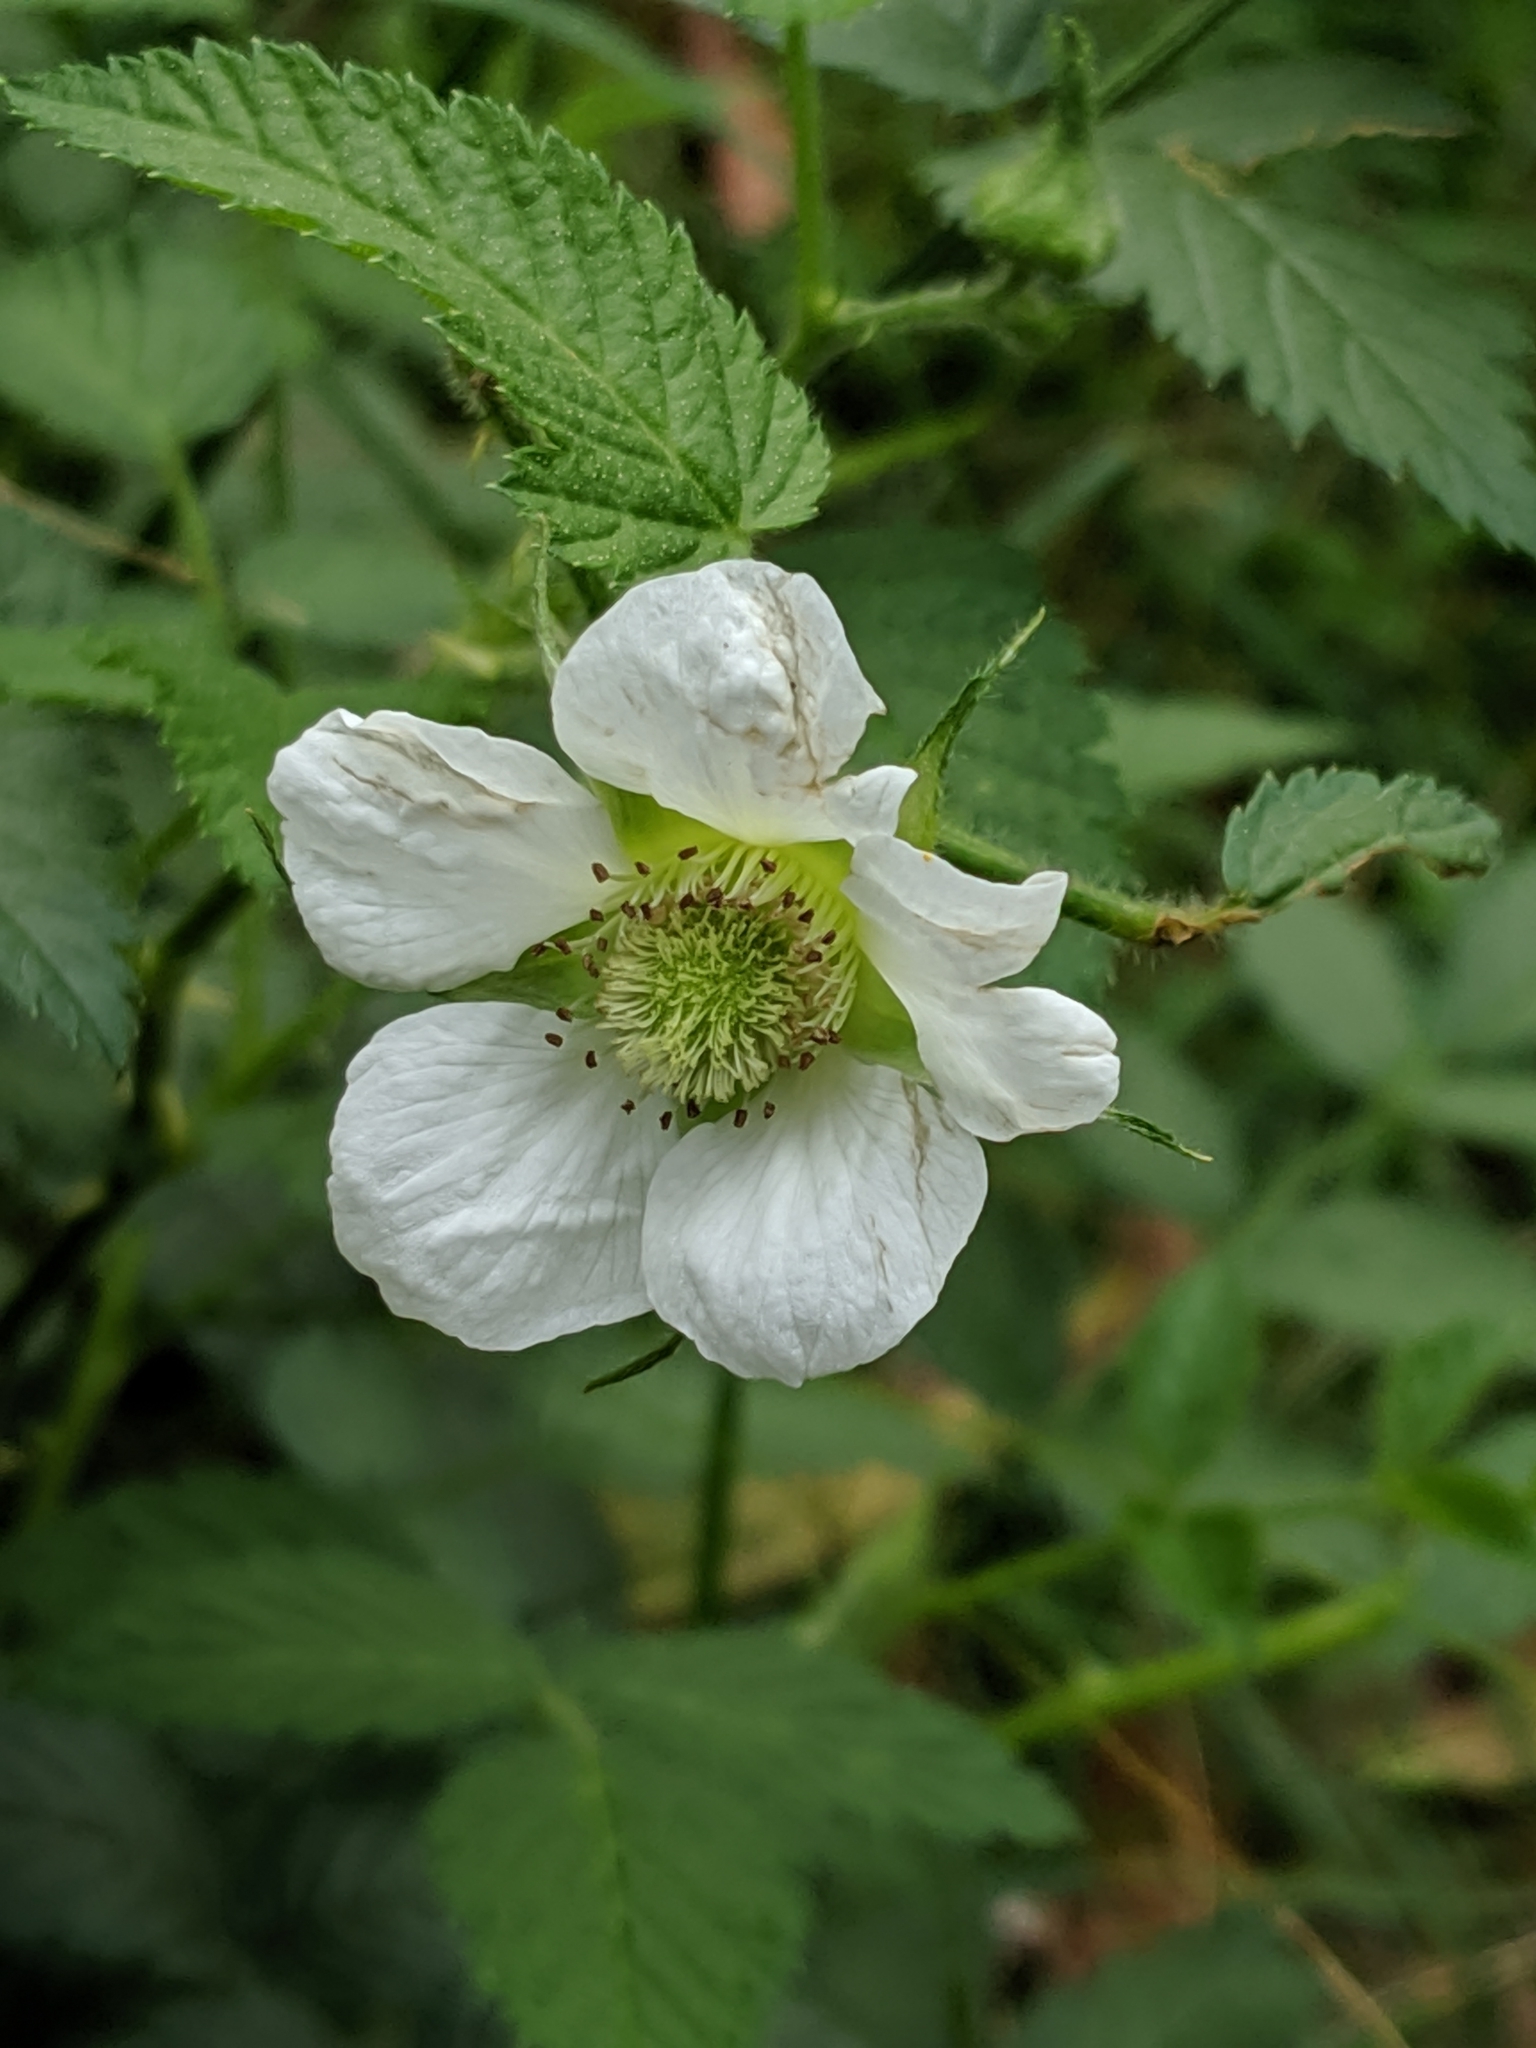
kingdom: Plantae
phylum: Tracheophyta
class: Magnoliopsida
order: Rosales
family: Rosaceae
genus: Rubus
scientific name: Rubus rosifolius
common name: Roseleaf raspberry
